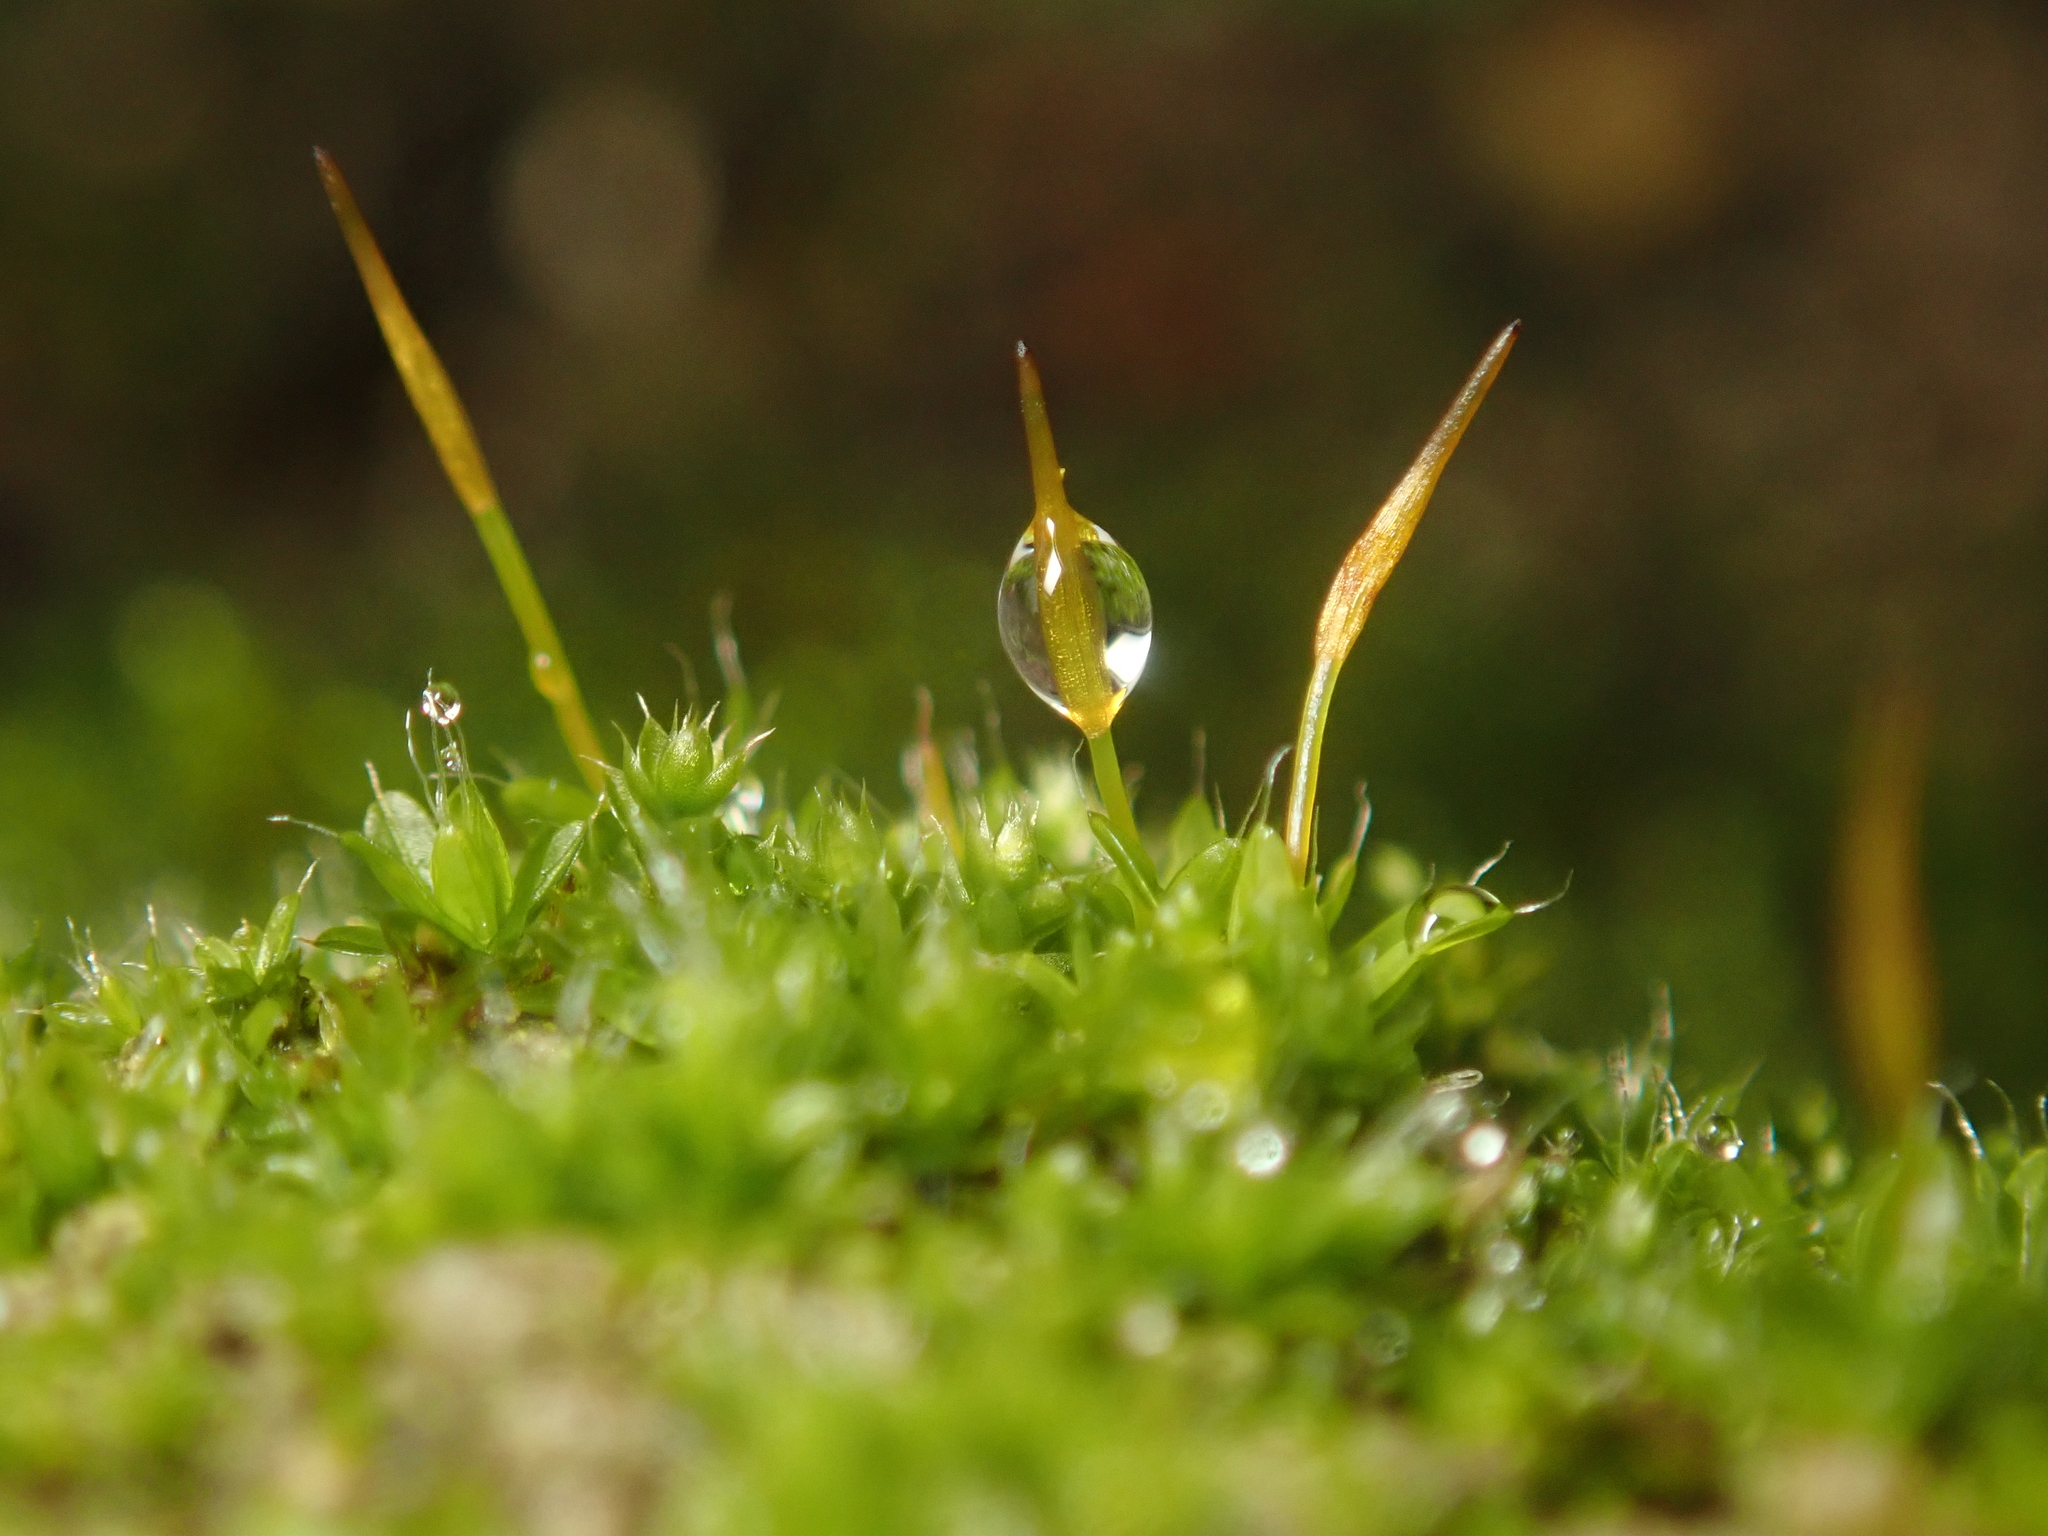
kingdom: Plantae
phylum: Bryophyta
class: Bryopsida
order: Pottiales
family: Pottiaceae
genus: Tortula
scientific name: Tortula muralis
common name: Wall screw-moss
